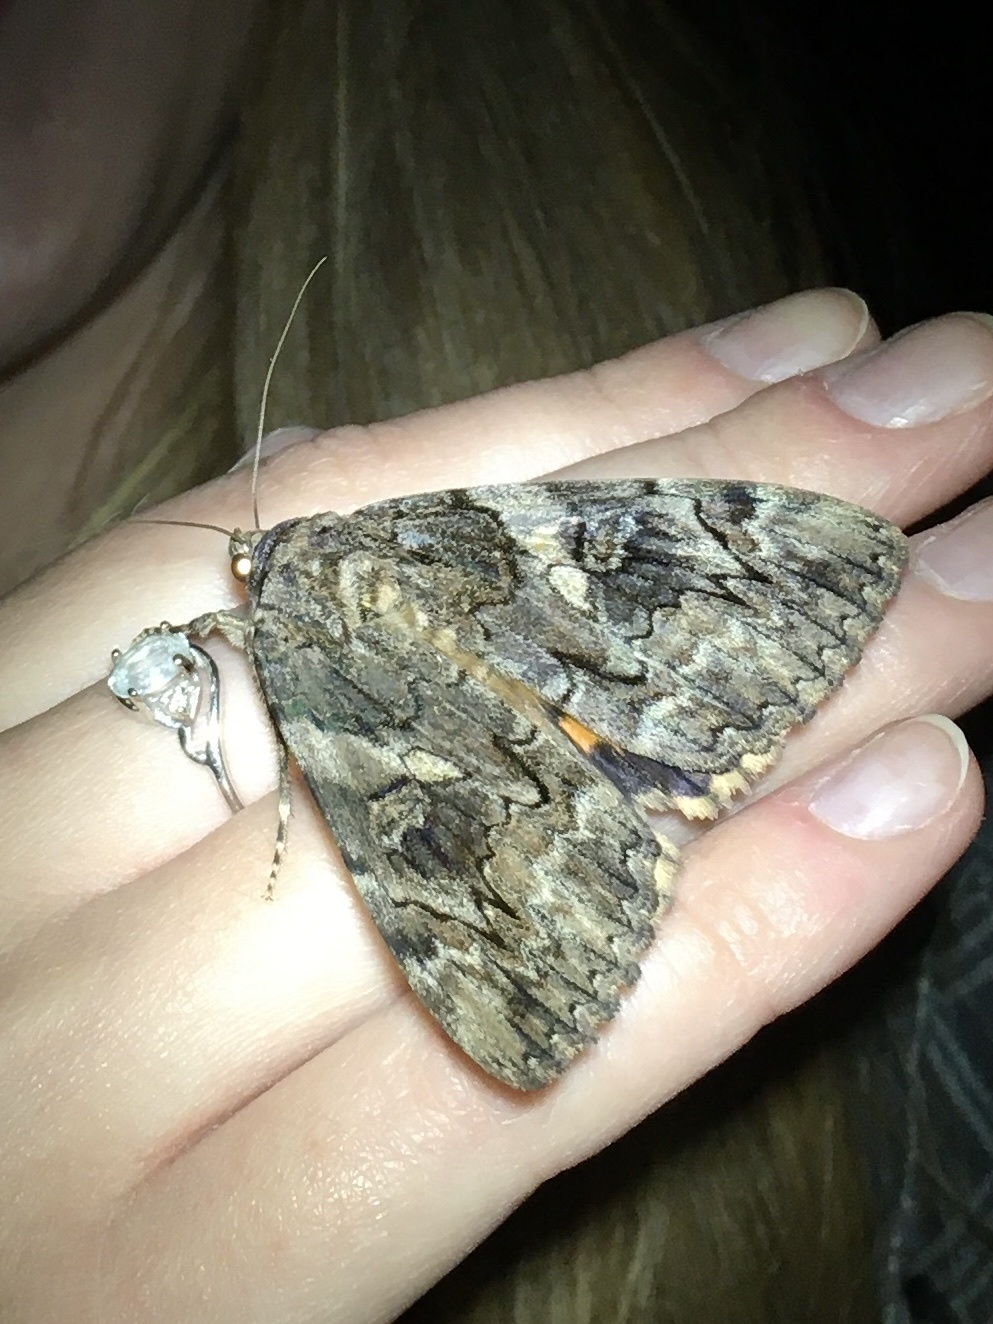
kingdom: Animalia
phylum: Arthropoda
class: Insecta
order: Lepidoptera
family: Erebidae
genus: Catocala
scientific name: Catocala piatrix
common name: The penitent underwing
